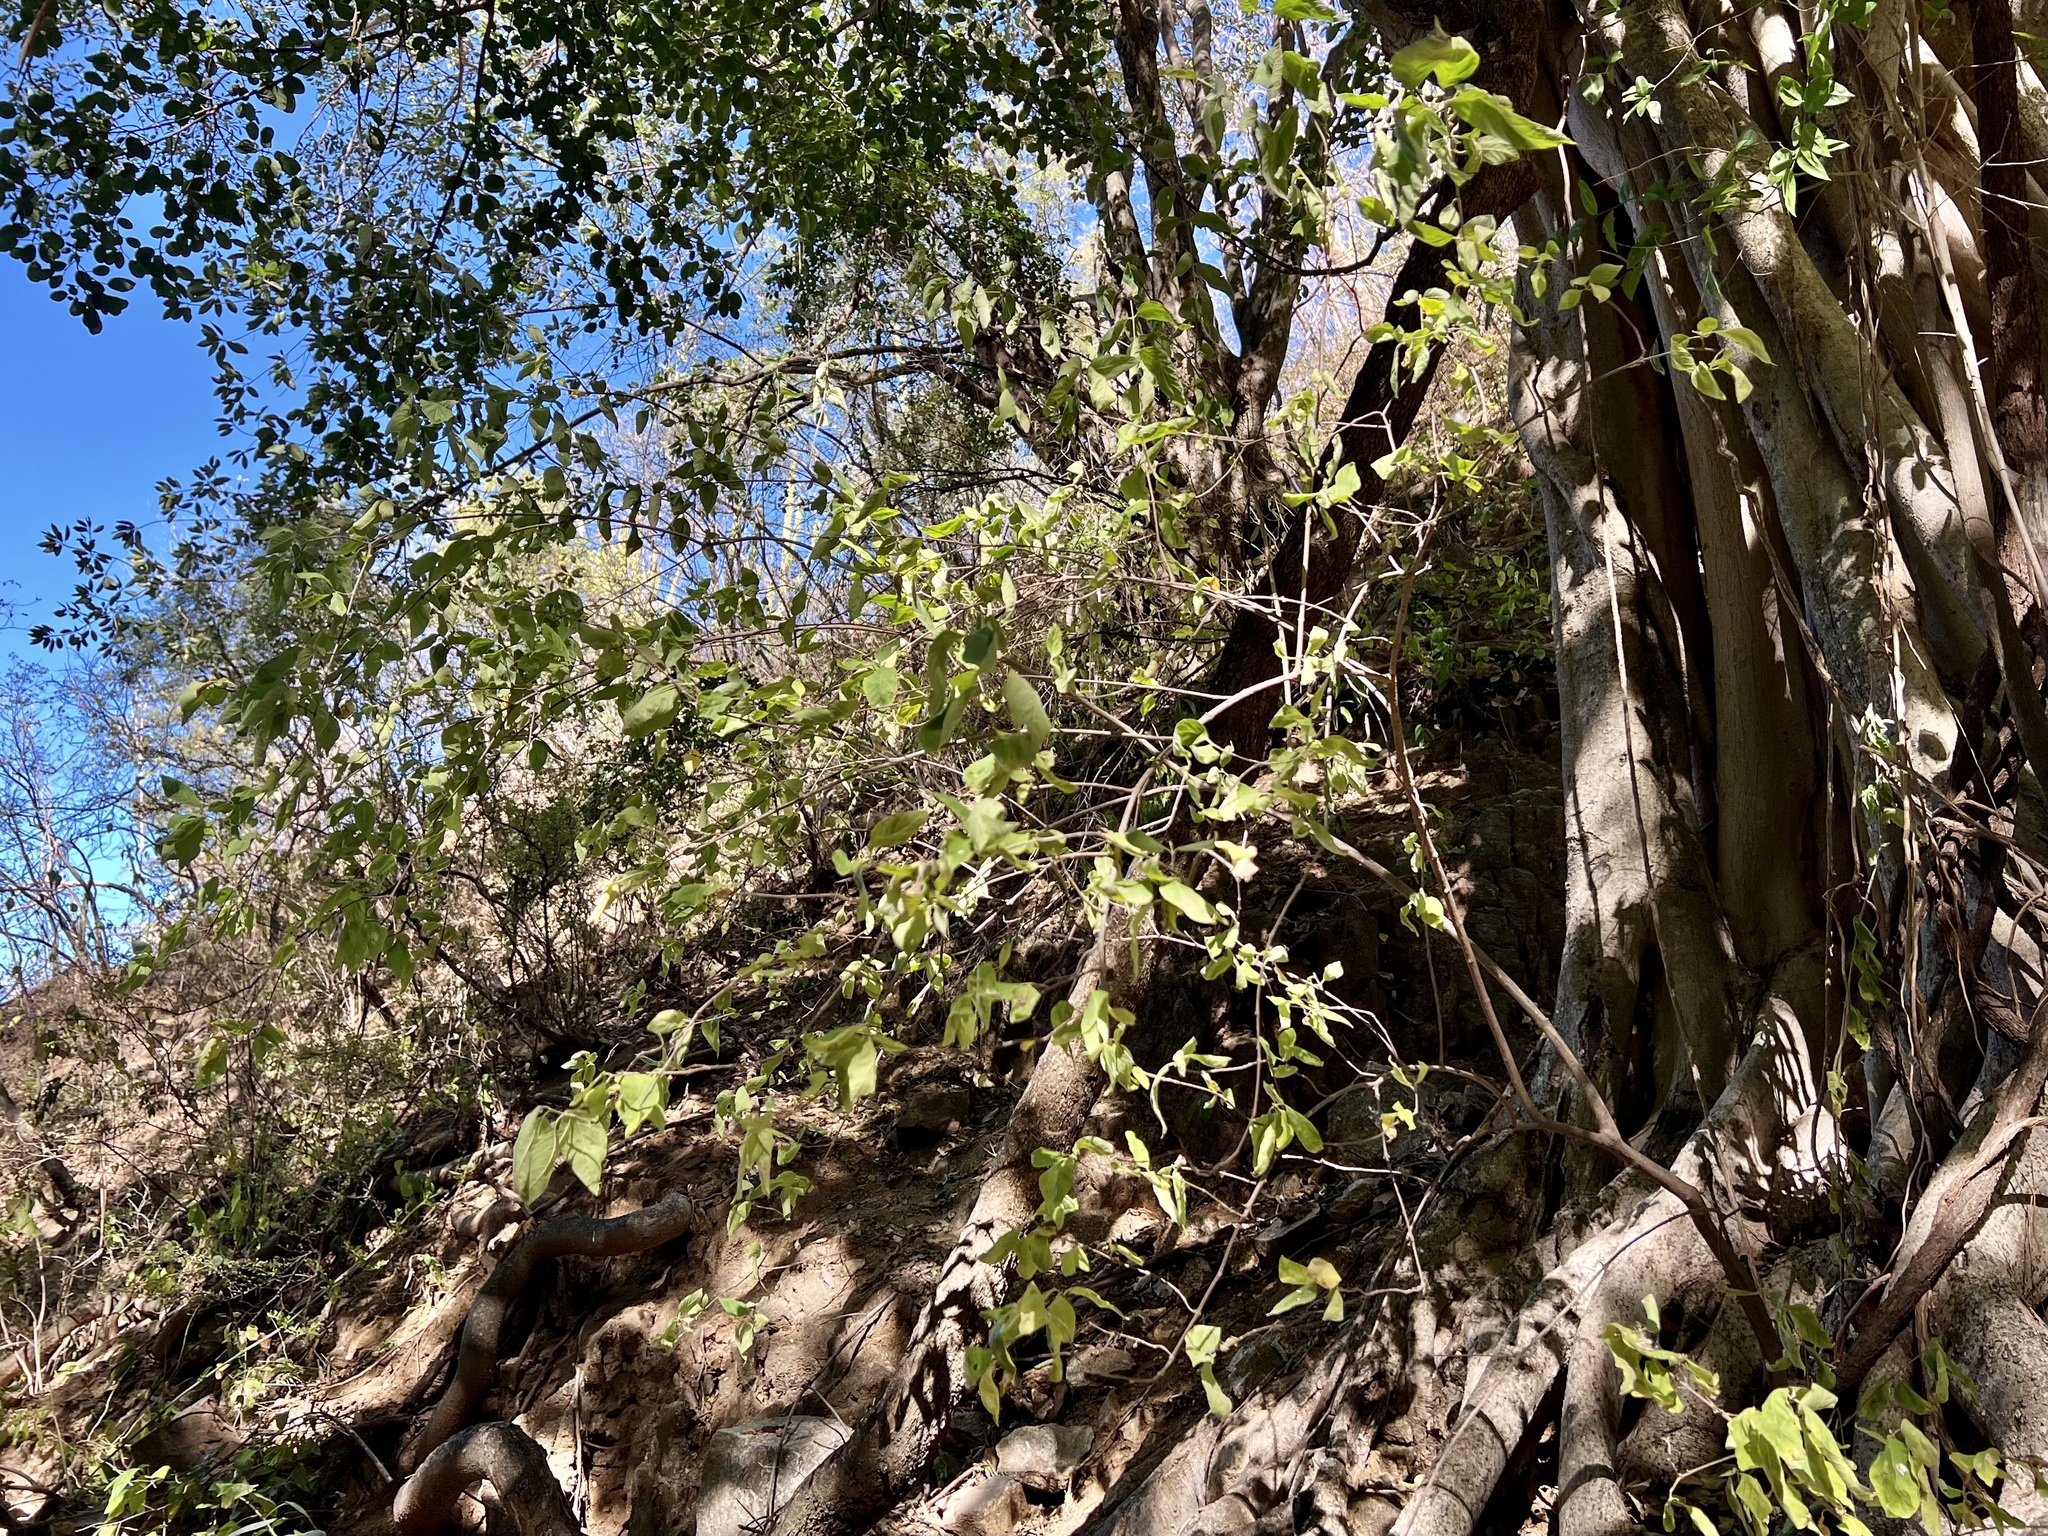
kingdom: Plantae
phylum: Tracheophyta
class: Magnoliopsida
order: Caryophyllales
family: Amaranthaceae
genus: Iresine
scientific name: Iresine latifolia
